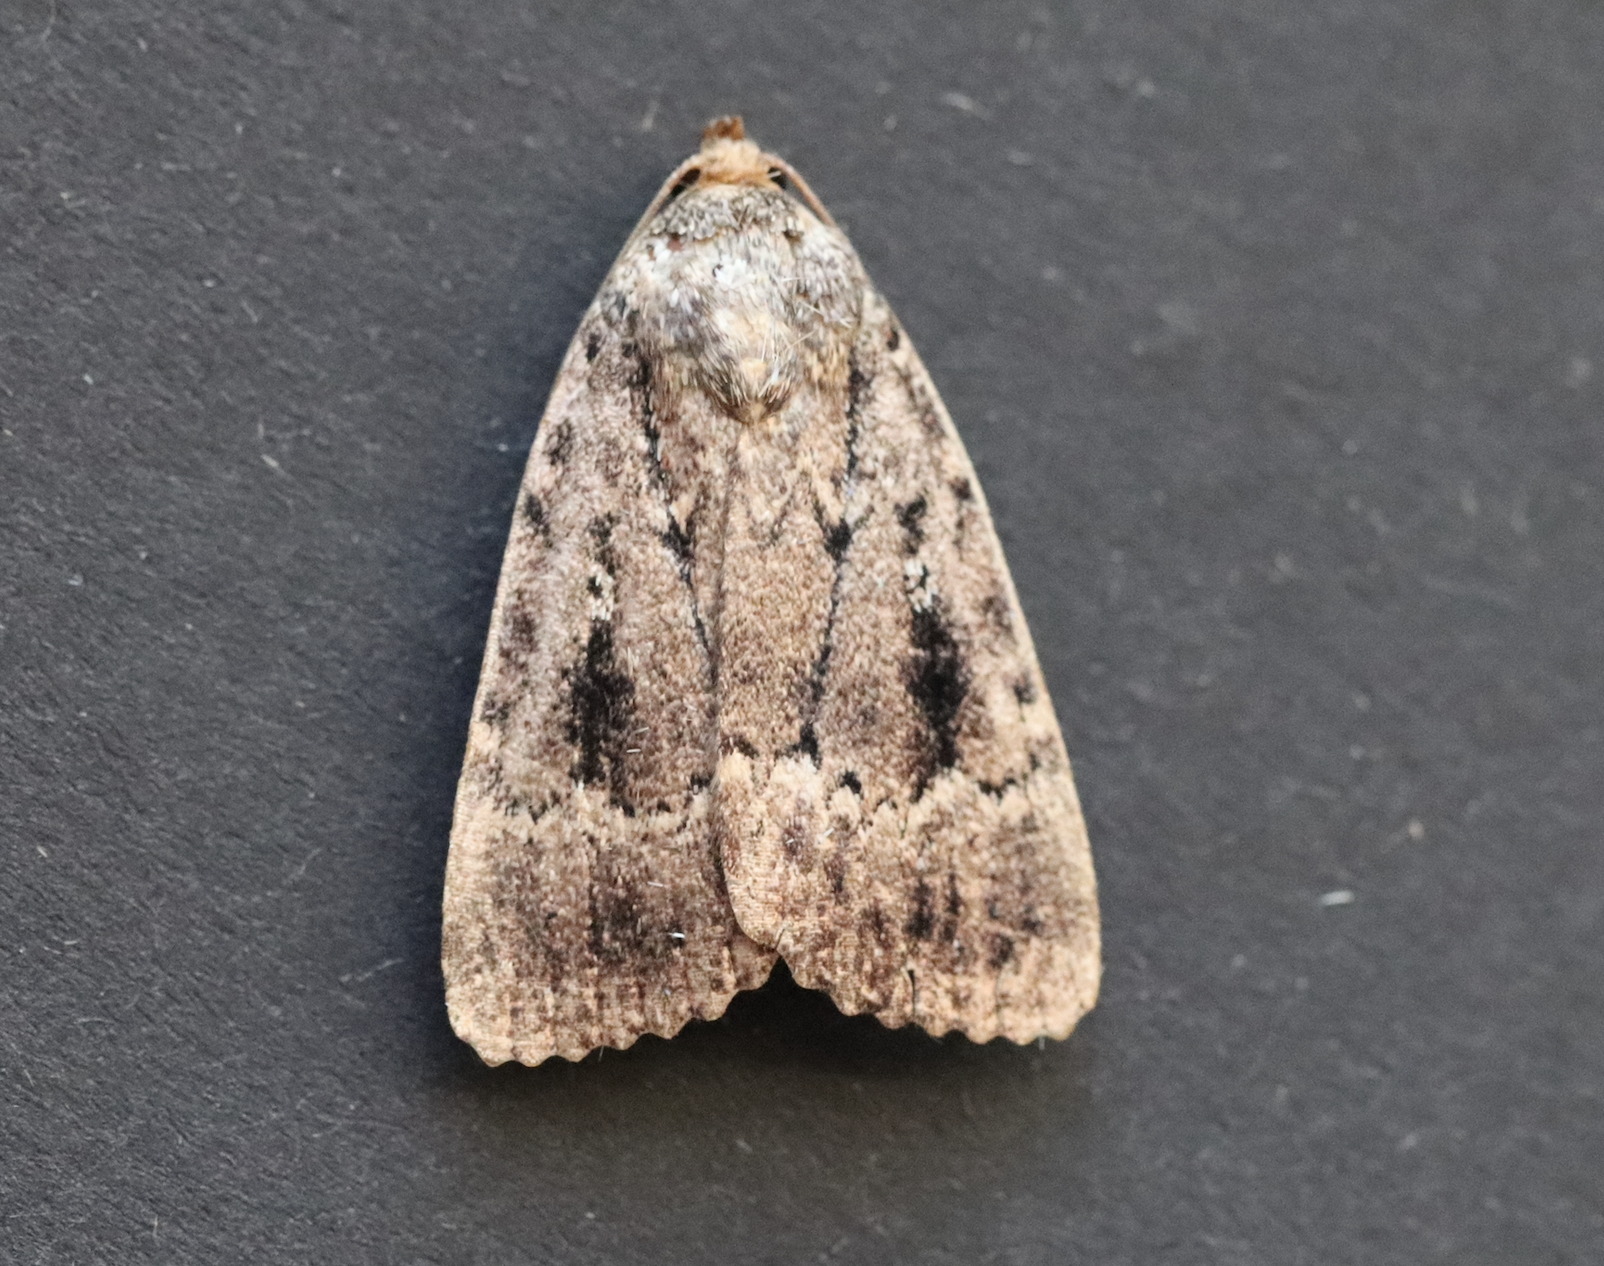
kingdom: Animalia
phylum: Arthropoda
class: Insecta
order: Lepidoptera
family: Noctuidae
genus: Amphipyra
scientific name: Amphipyra pyramidea
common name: Copper underwing
